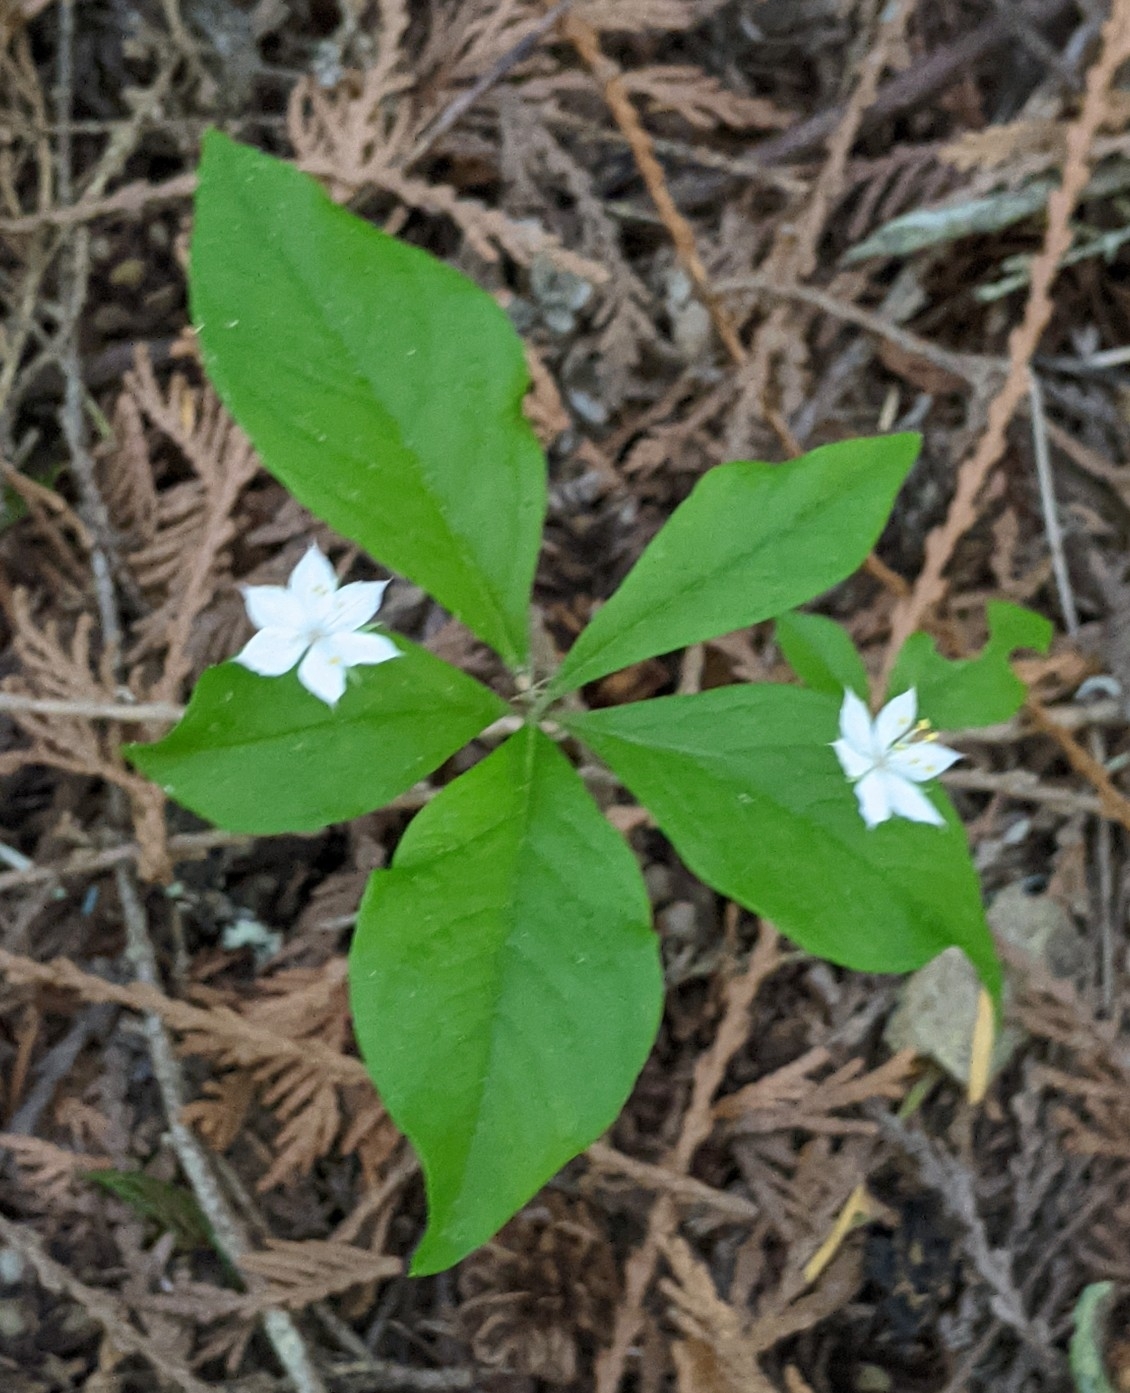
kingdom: Plantae
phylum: Tracheophyta
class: Magnoliopsida
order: Ericales
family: Primulaceae
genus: Lysimachia
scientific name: Lysimachia latifolia
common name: Pacific starflower
